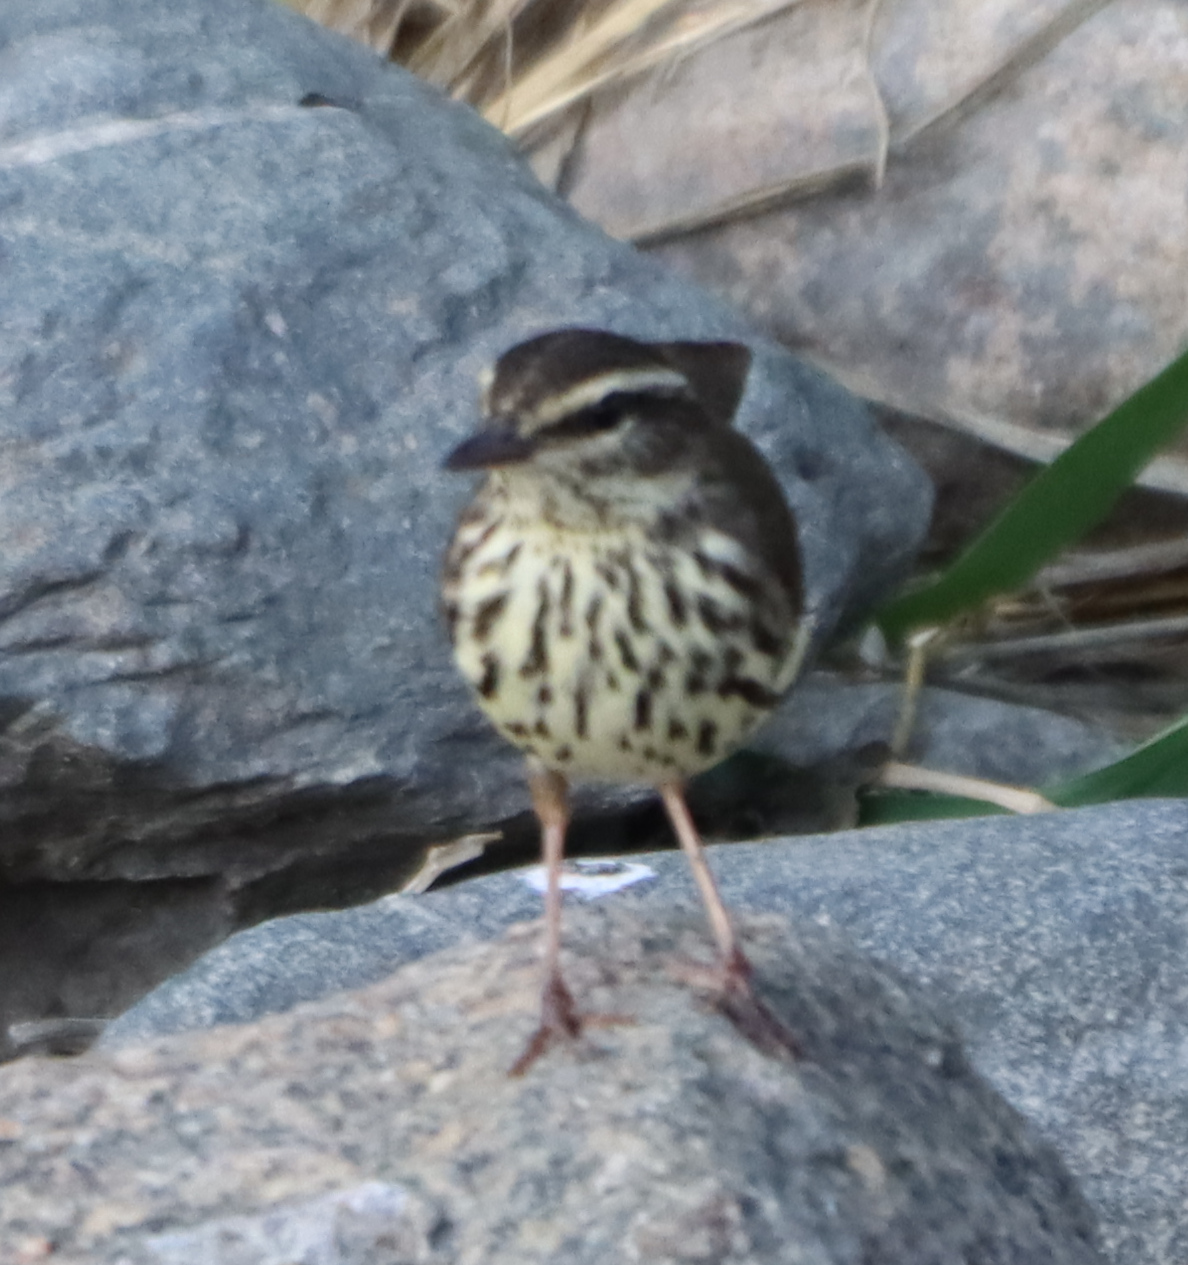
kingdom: Animalia
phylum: Chordata
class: Aves
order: Passeriformes
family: Parulidae
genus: Parkesia
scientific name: Parkesia noveboracensis
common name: Northern waterthrush
